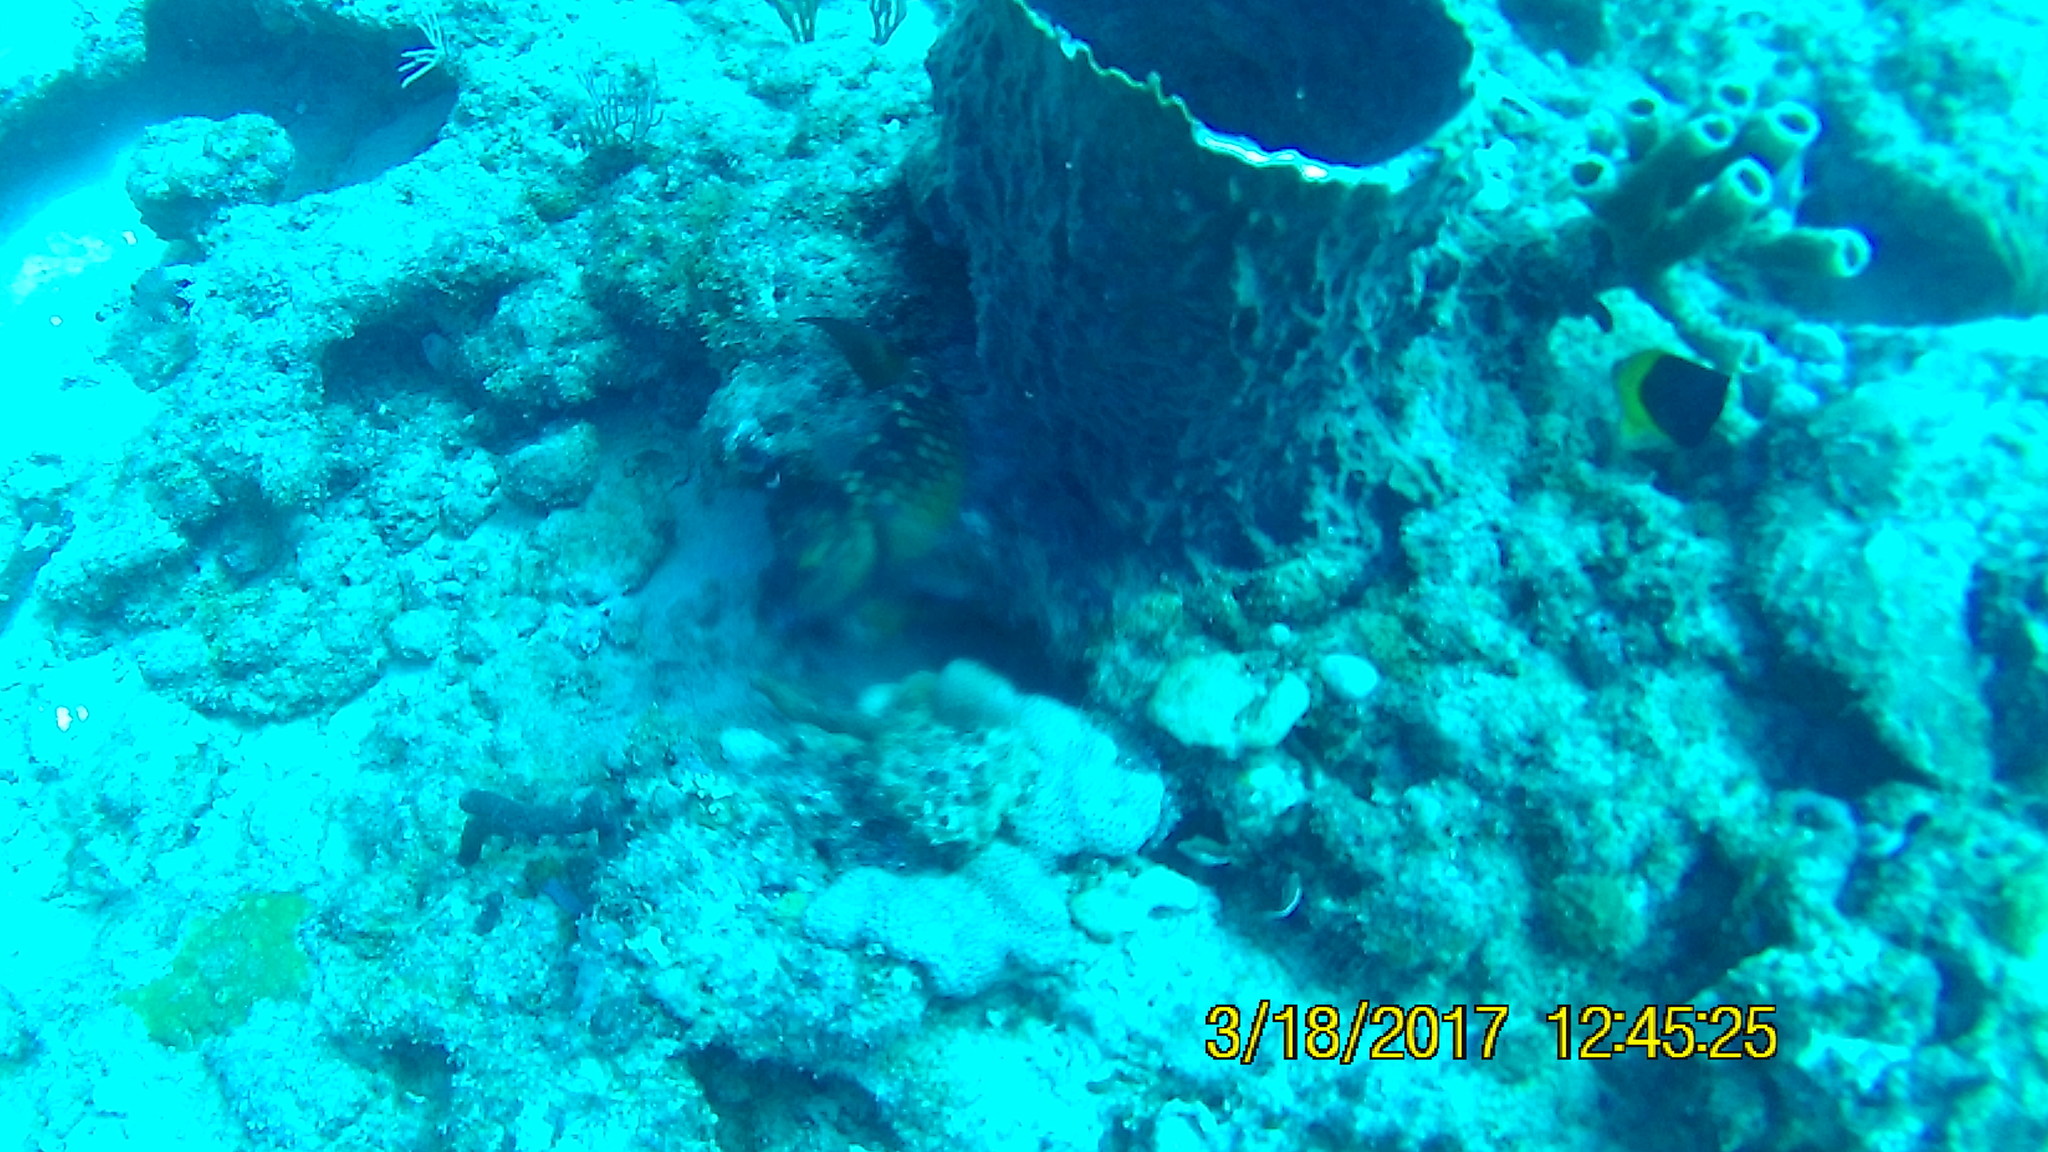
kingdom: Animalia
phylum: Chordata
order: Perciformes
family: Scaridae
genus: Sparisoma
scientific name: Sparisoma viride
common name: Stoplight parrotfish
